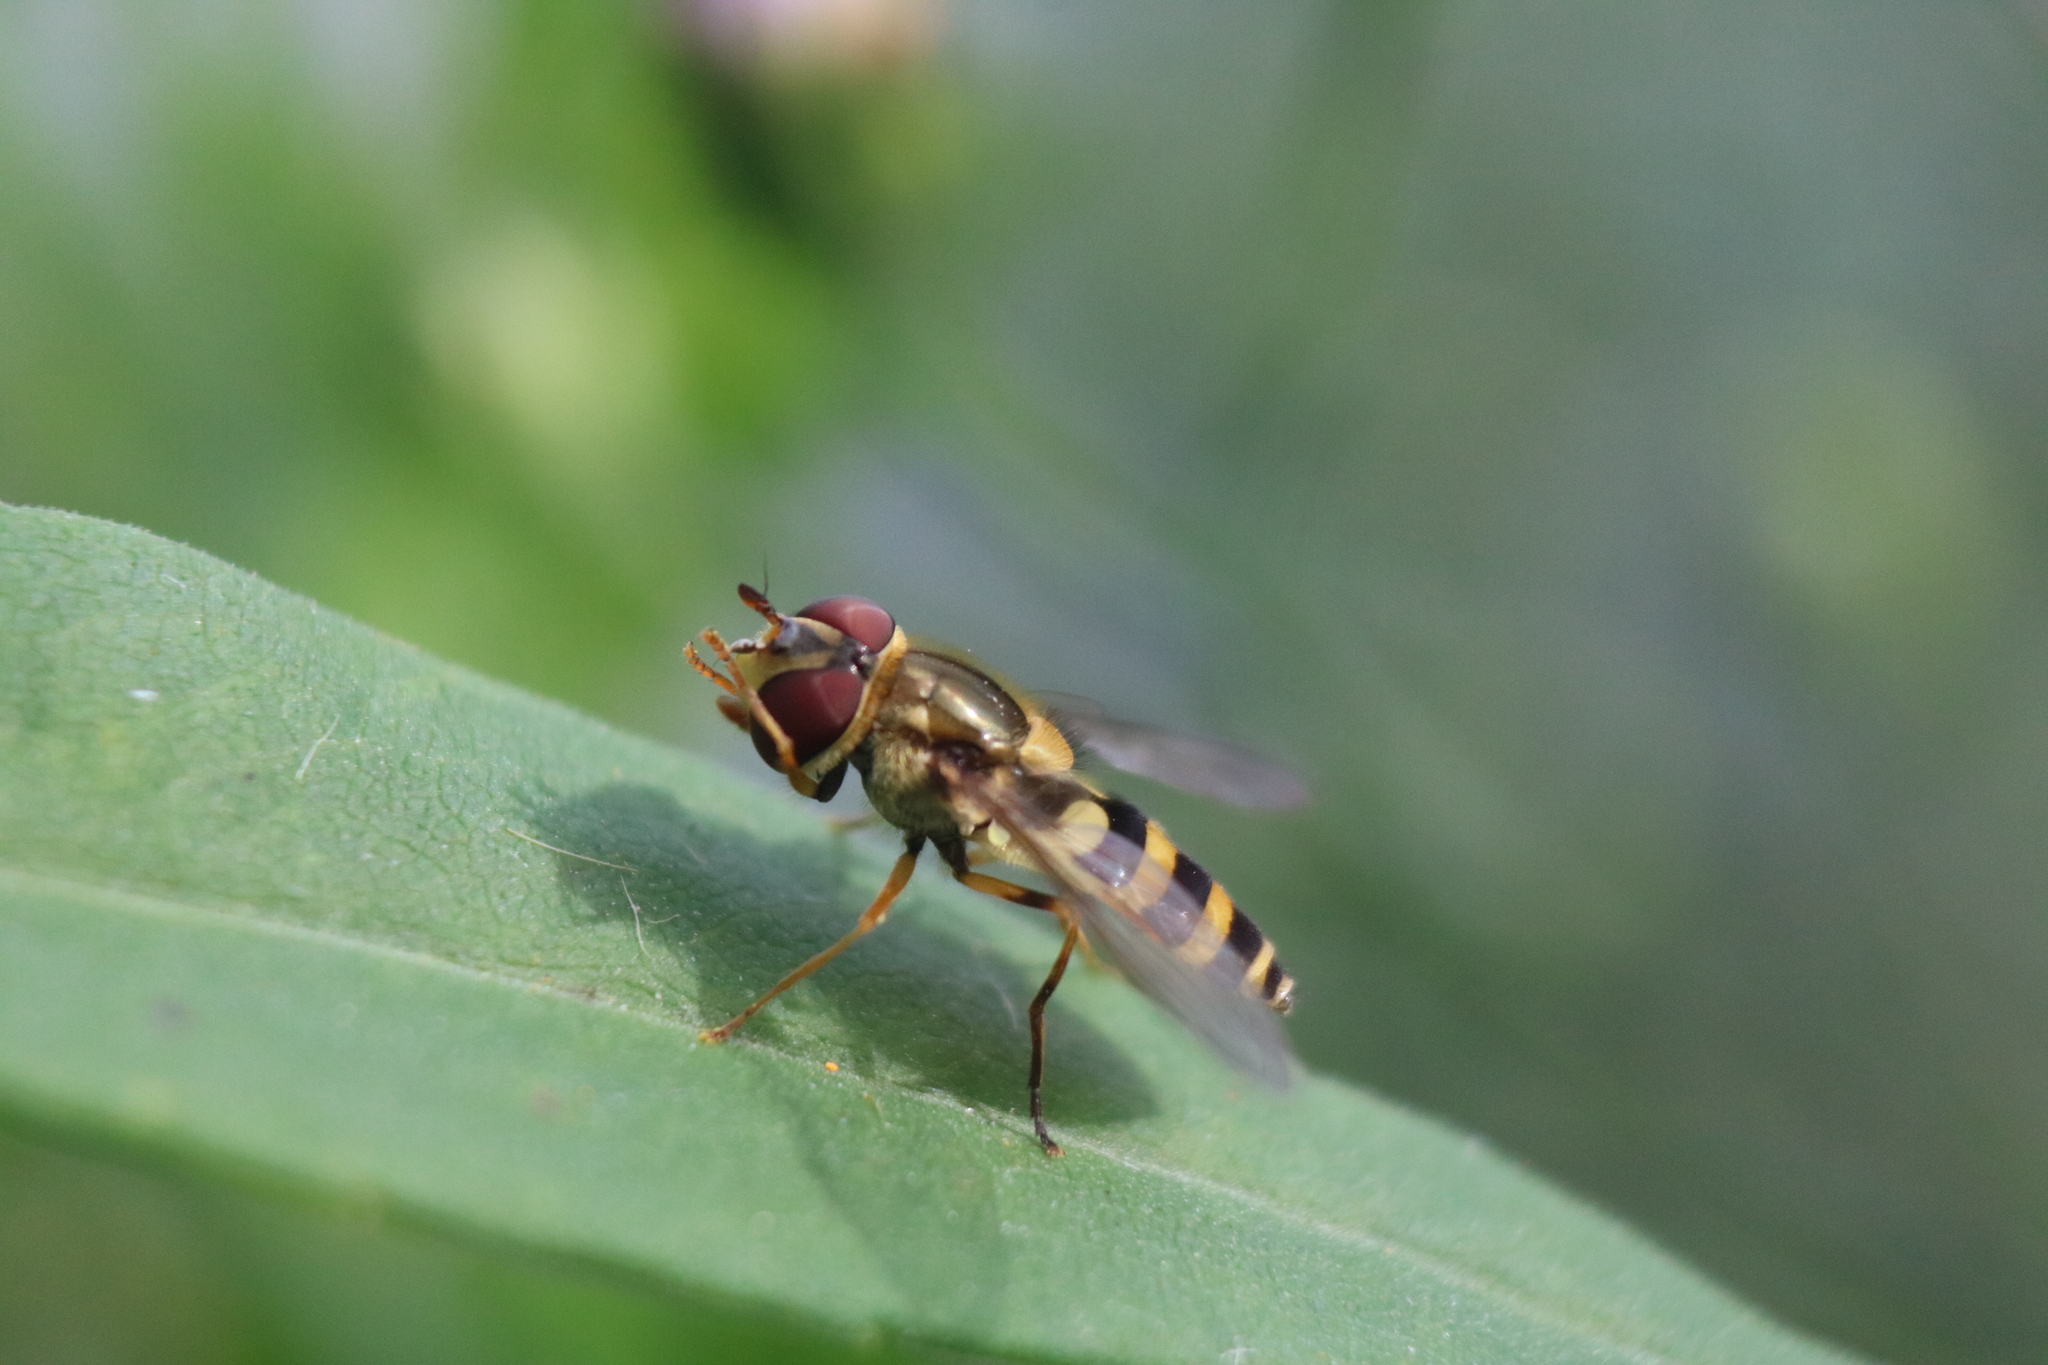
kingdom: Animalia
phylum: Arthropoda
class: Insecta
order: Diptera
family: Syrphidae
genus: Syrphus
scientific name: Syrphus rectus
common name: Yellow-legged flower fly
